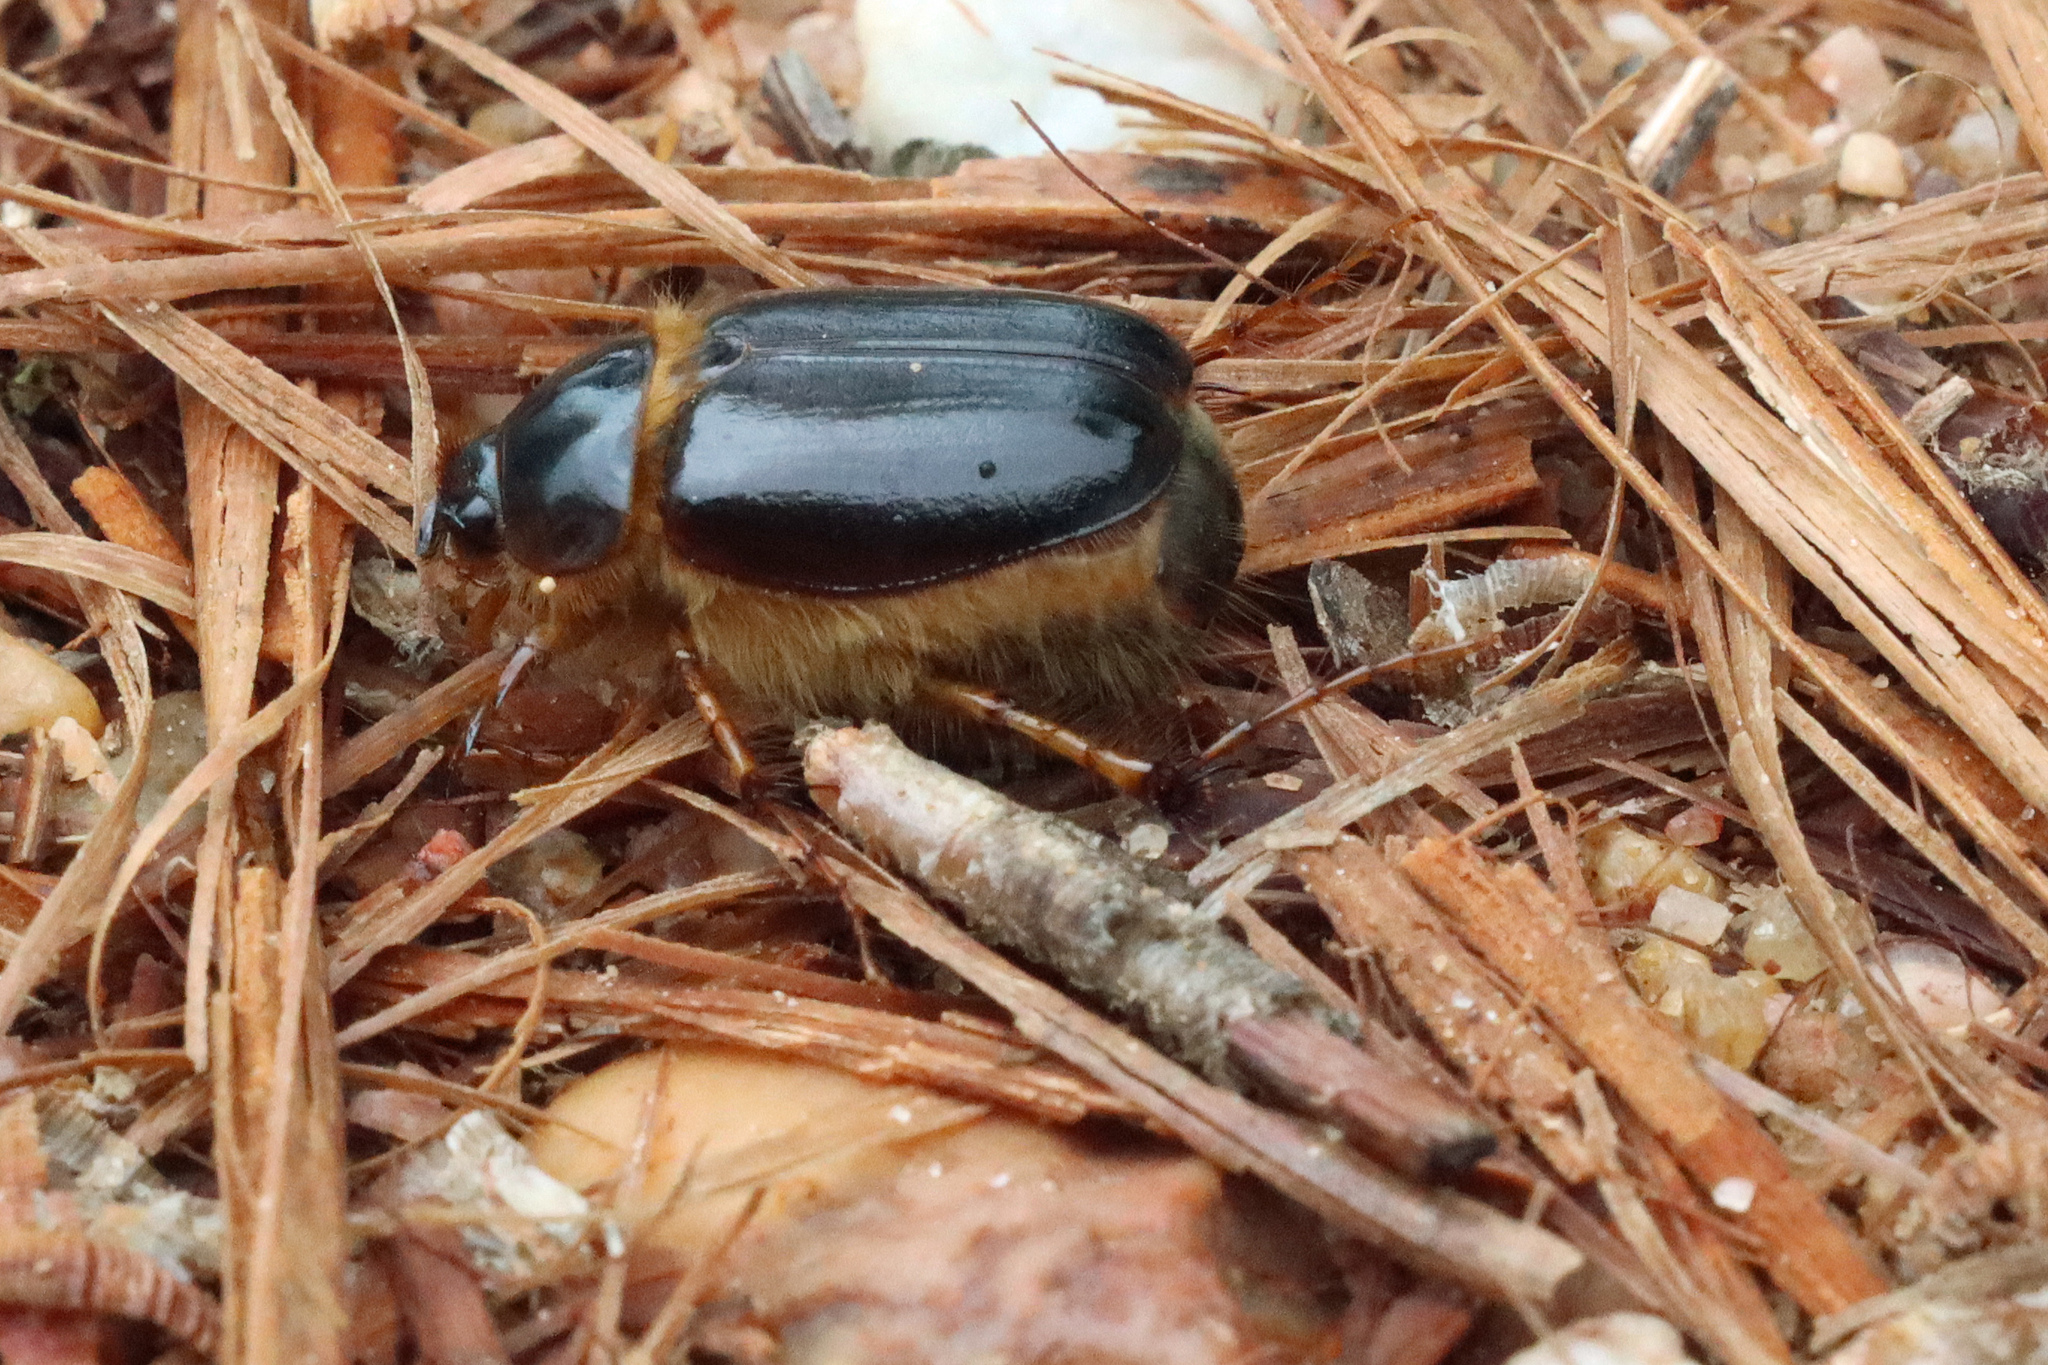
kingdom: Animalia
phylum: Arthropoda
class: Insecta
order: Coleoptera
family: Scarabaeidae
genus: Ceramida
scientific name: Ceramida bedeaui
